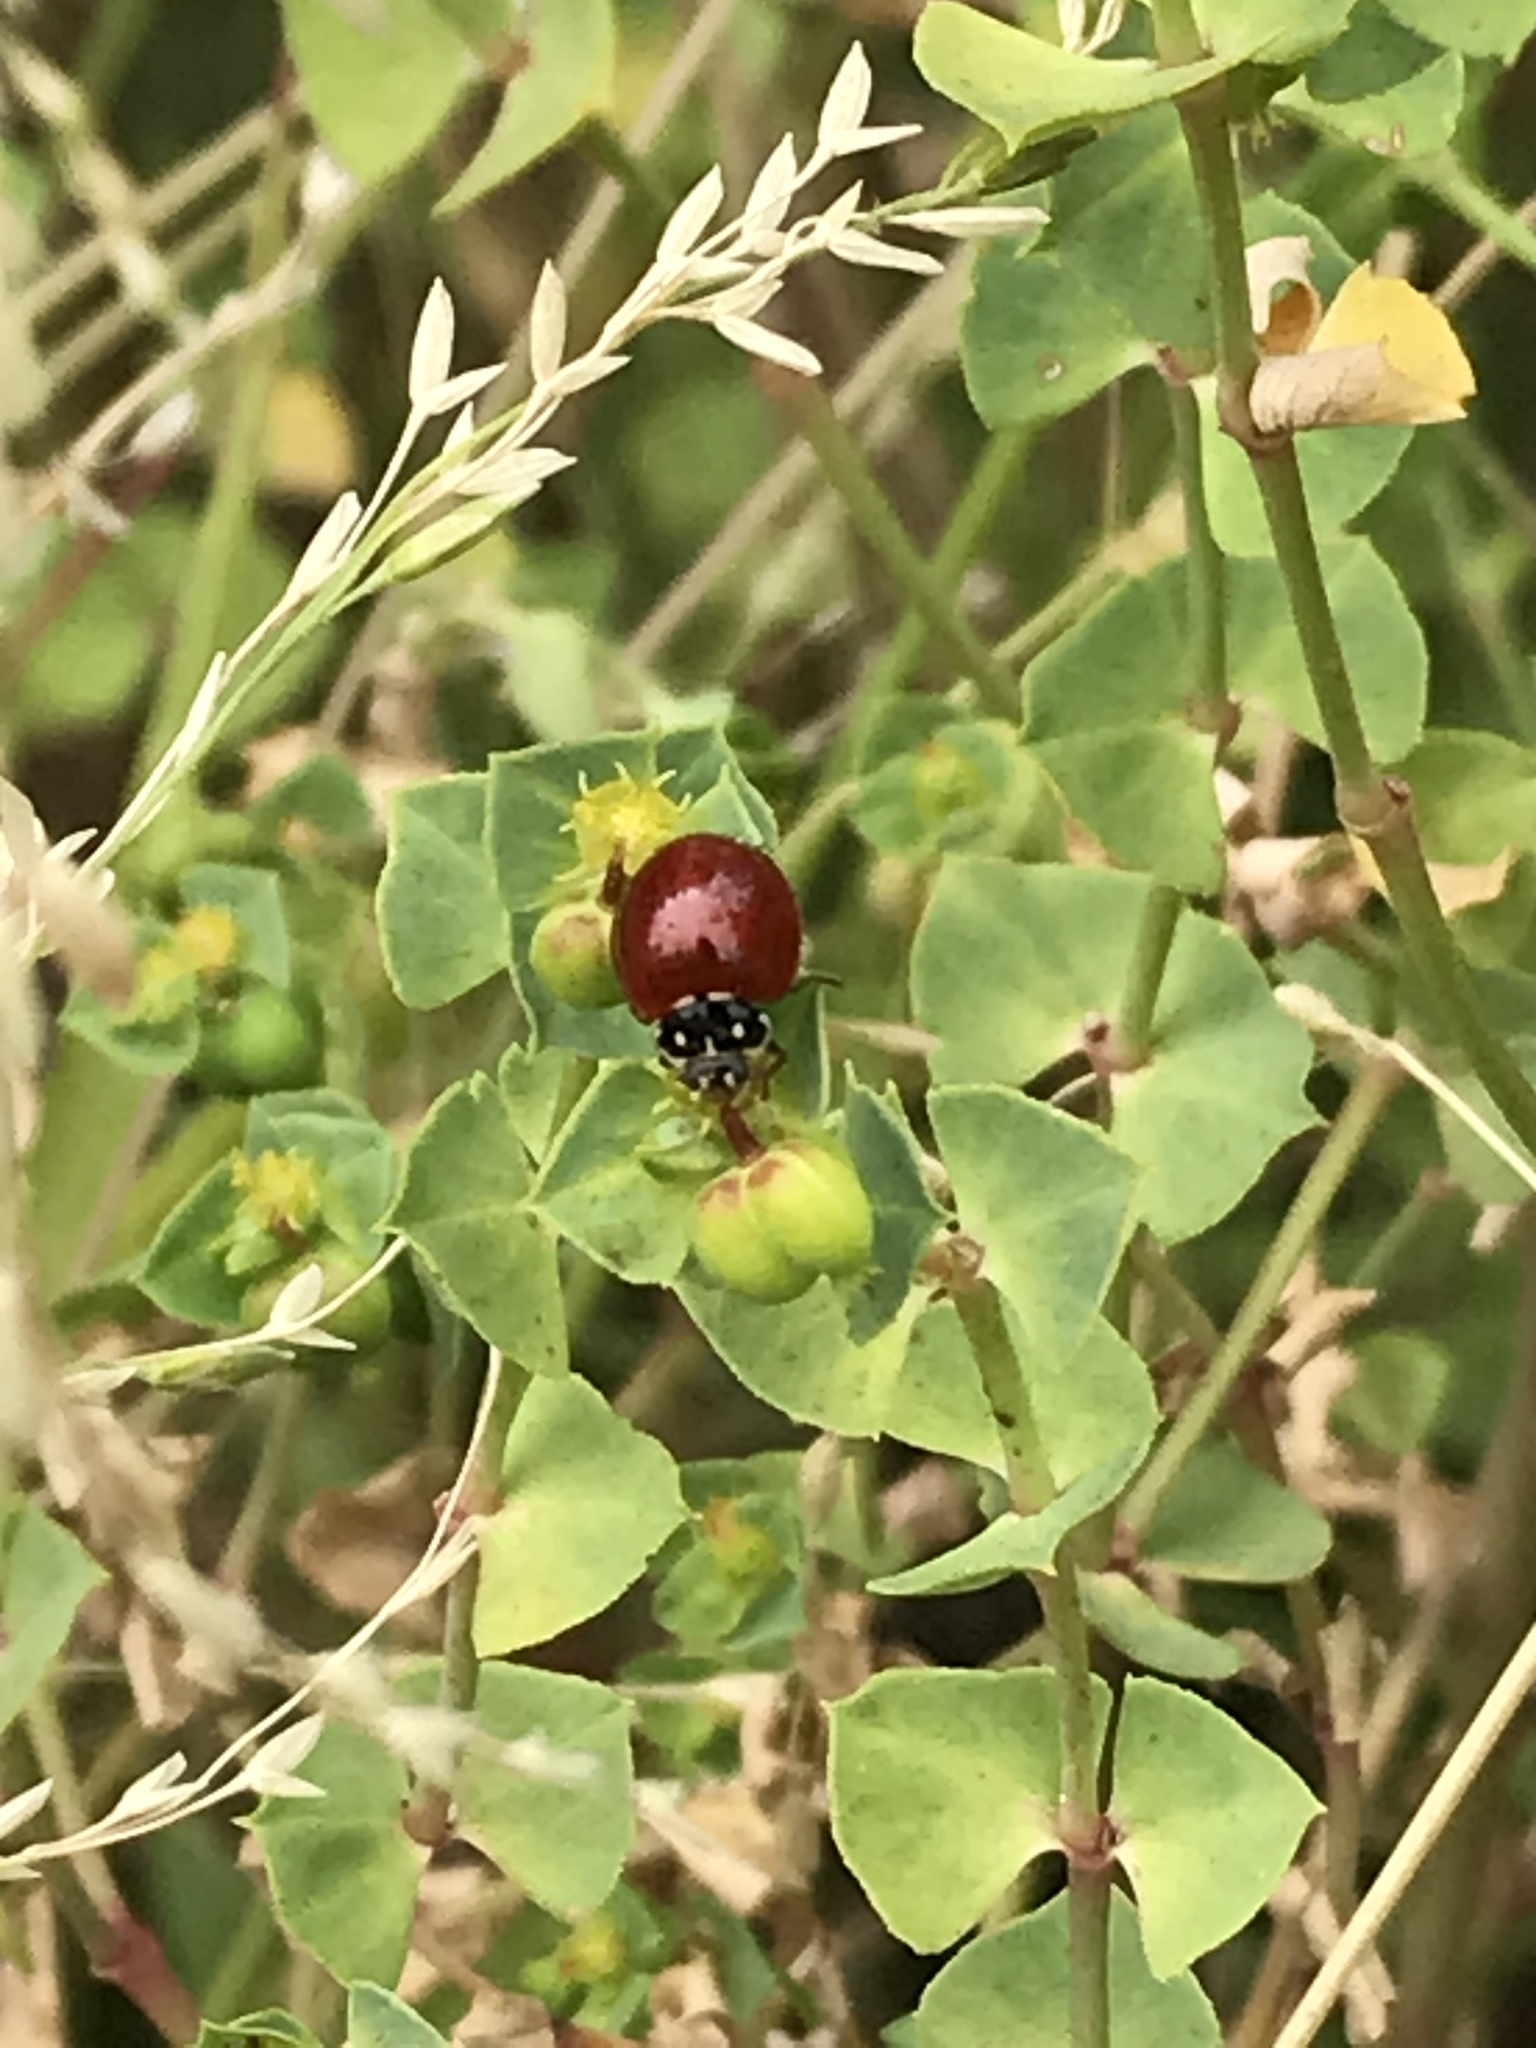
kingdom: Animalia
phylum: Arthropoda
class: Insecta
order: Coleoptera
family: Coccinellidae
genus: Cycloneda
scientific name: Cycloneda sanguinea
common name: Ladybird beetle
